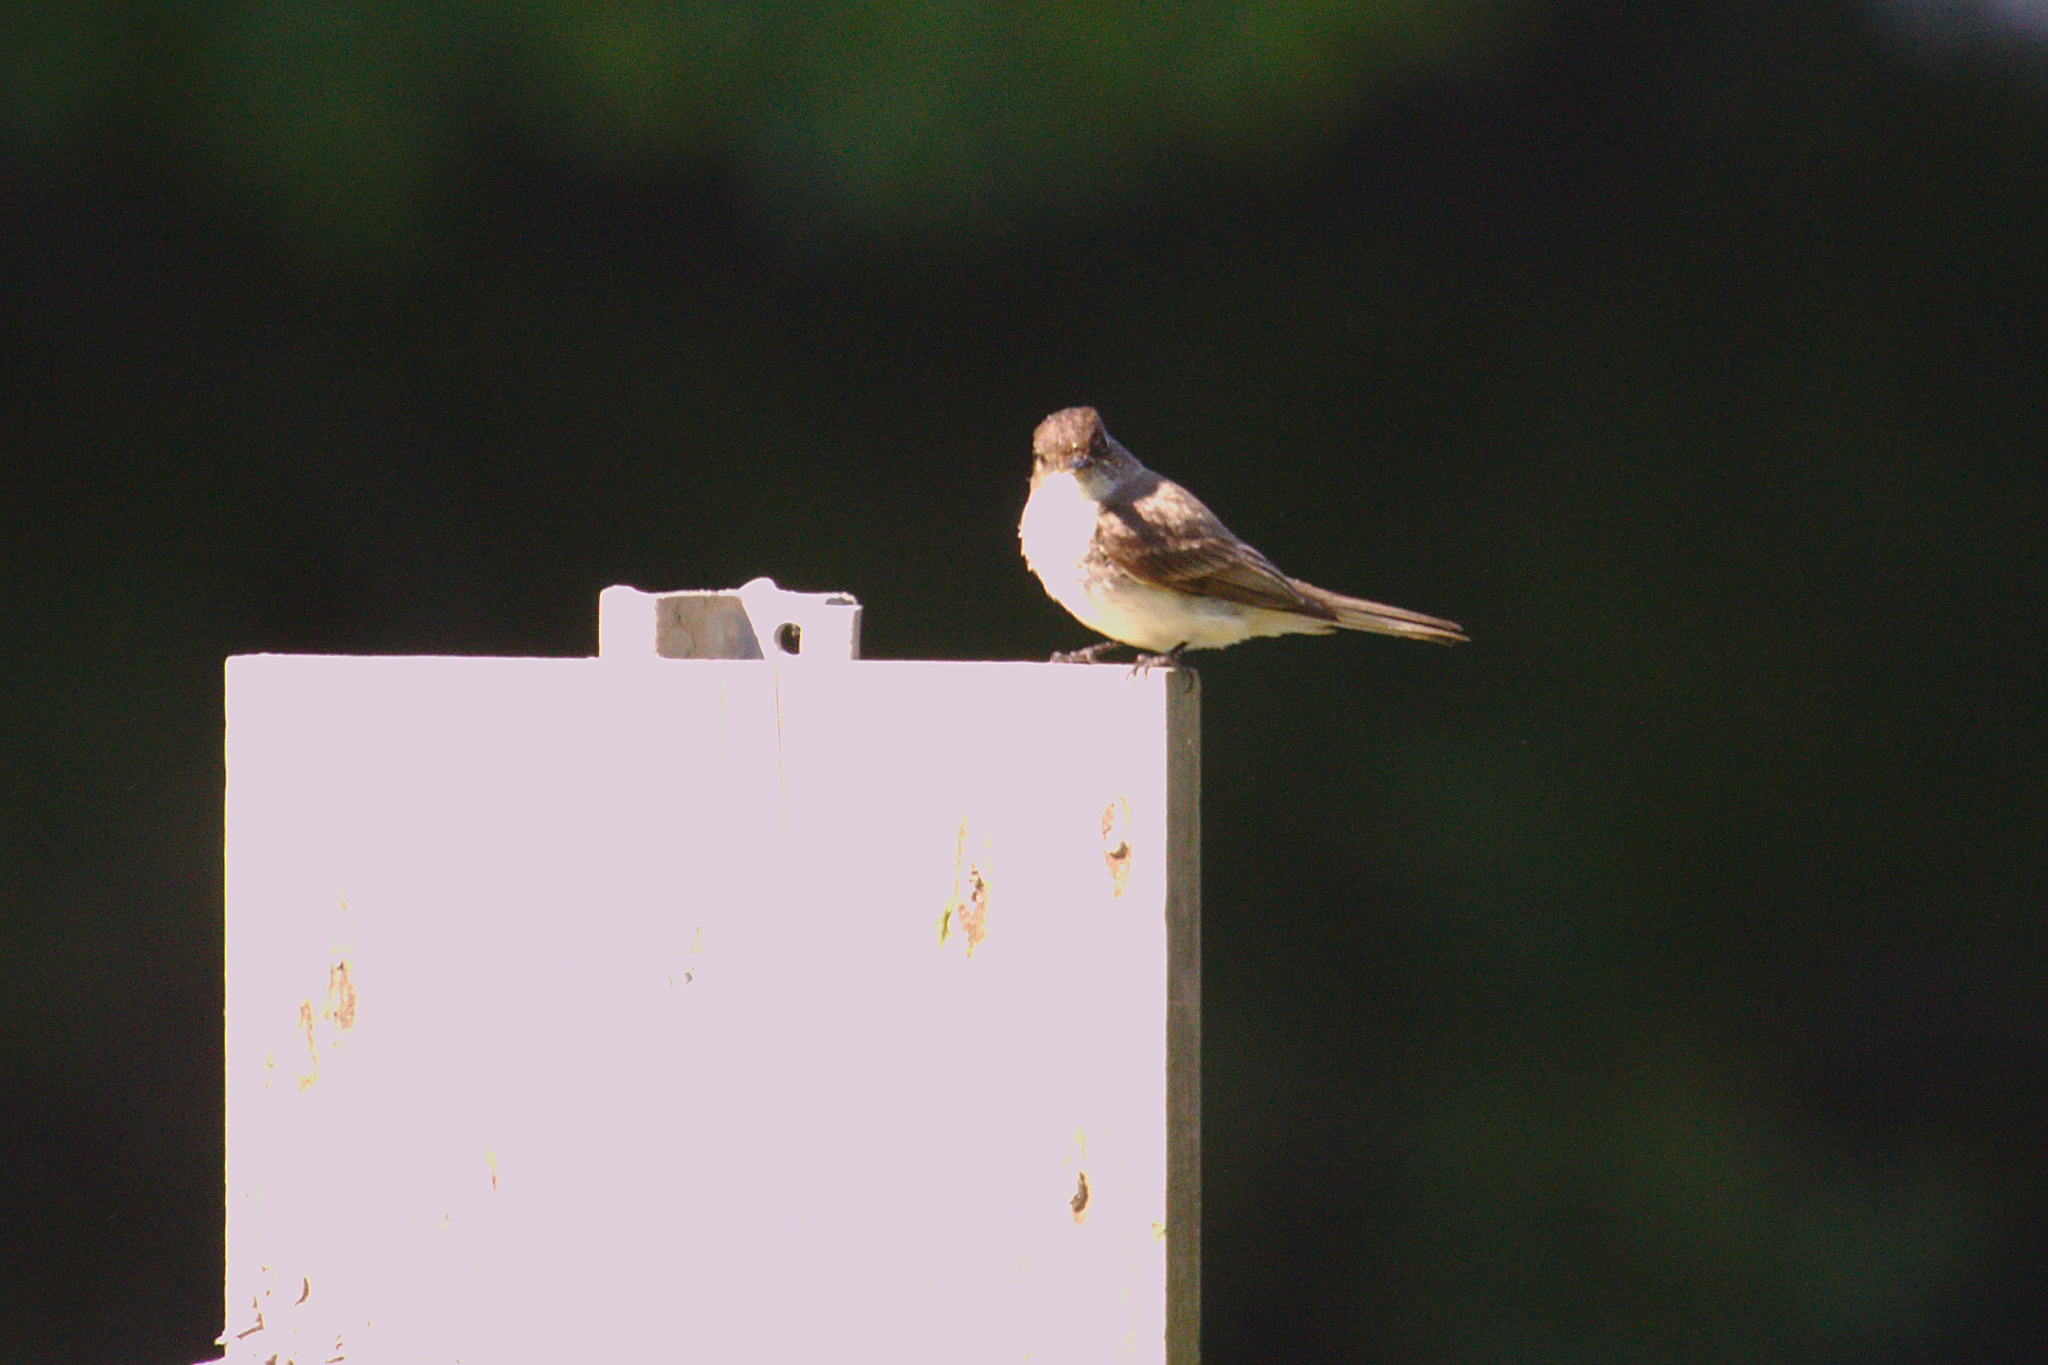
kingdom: Animalia
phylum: Chordata
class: Aves
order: Passeriformes
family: Tyrannidae
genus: Sayornis
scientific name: Sayornis phoebe
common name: Eastern phoebe
